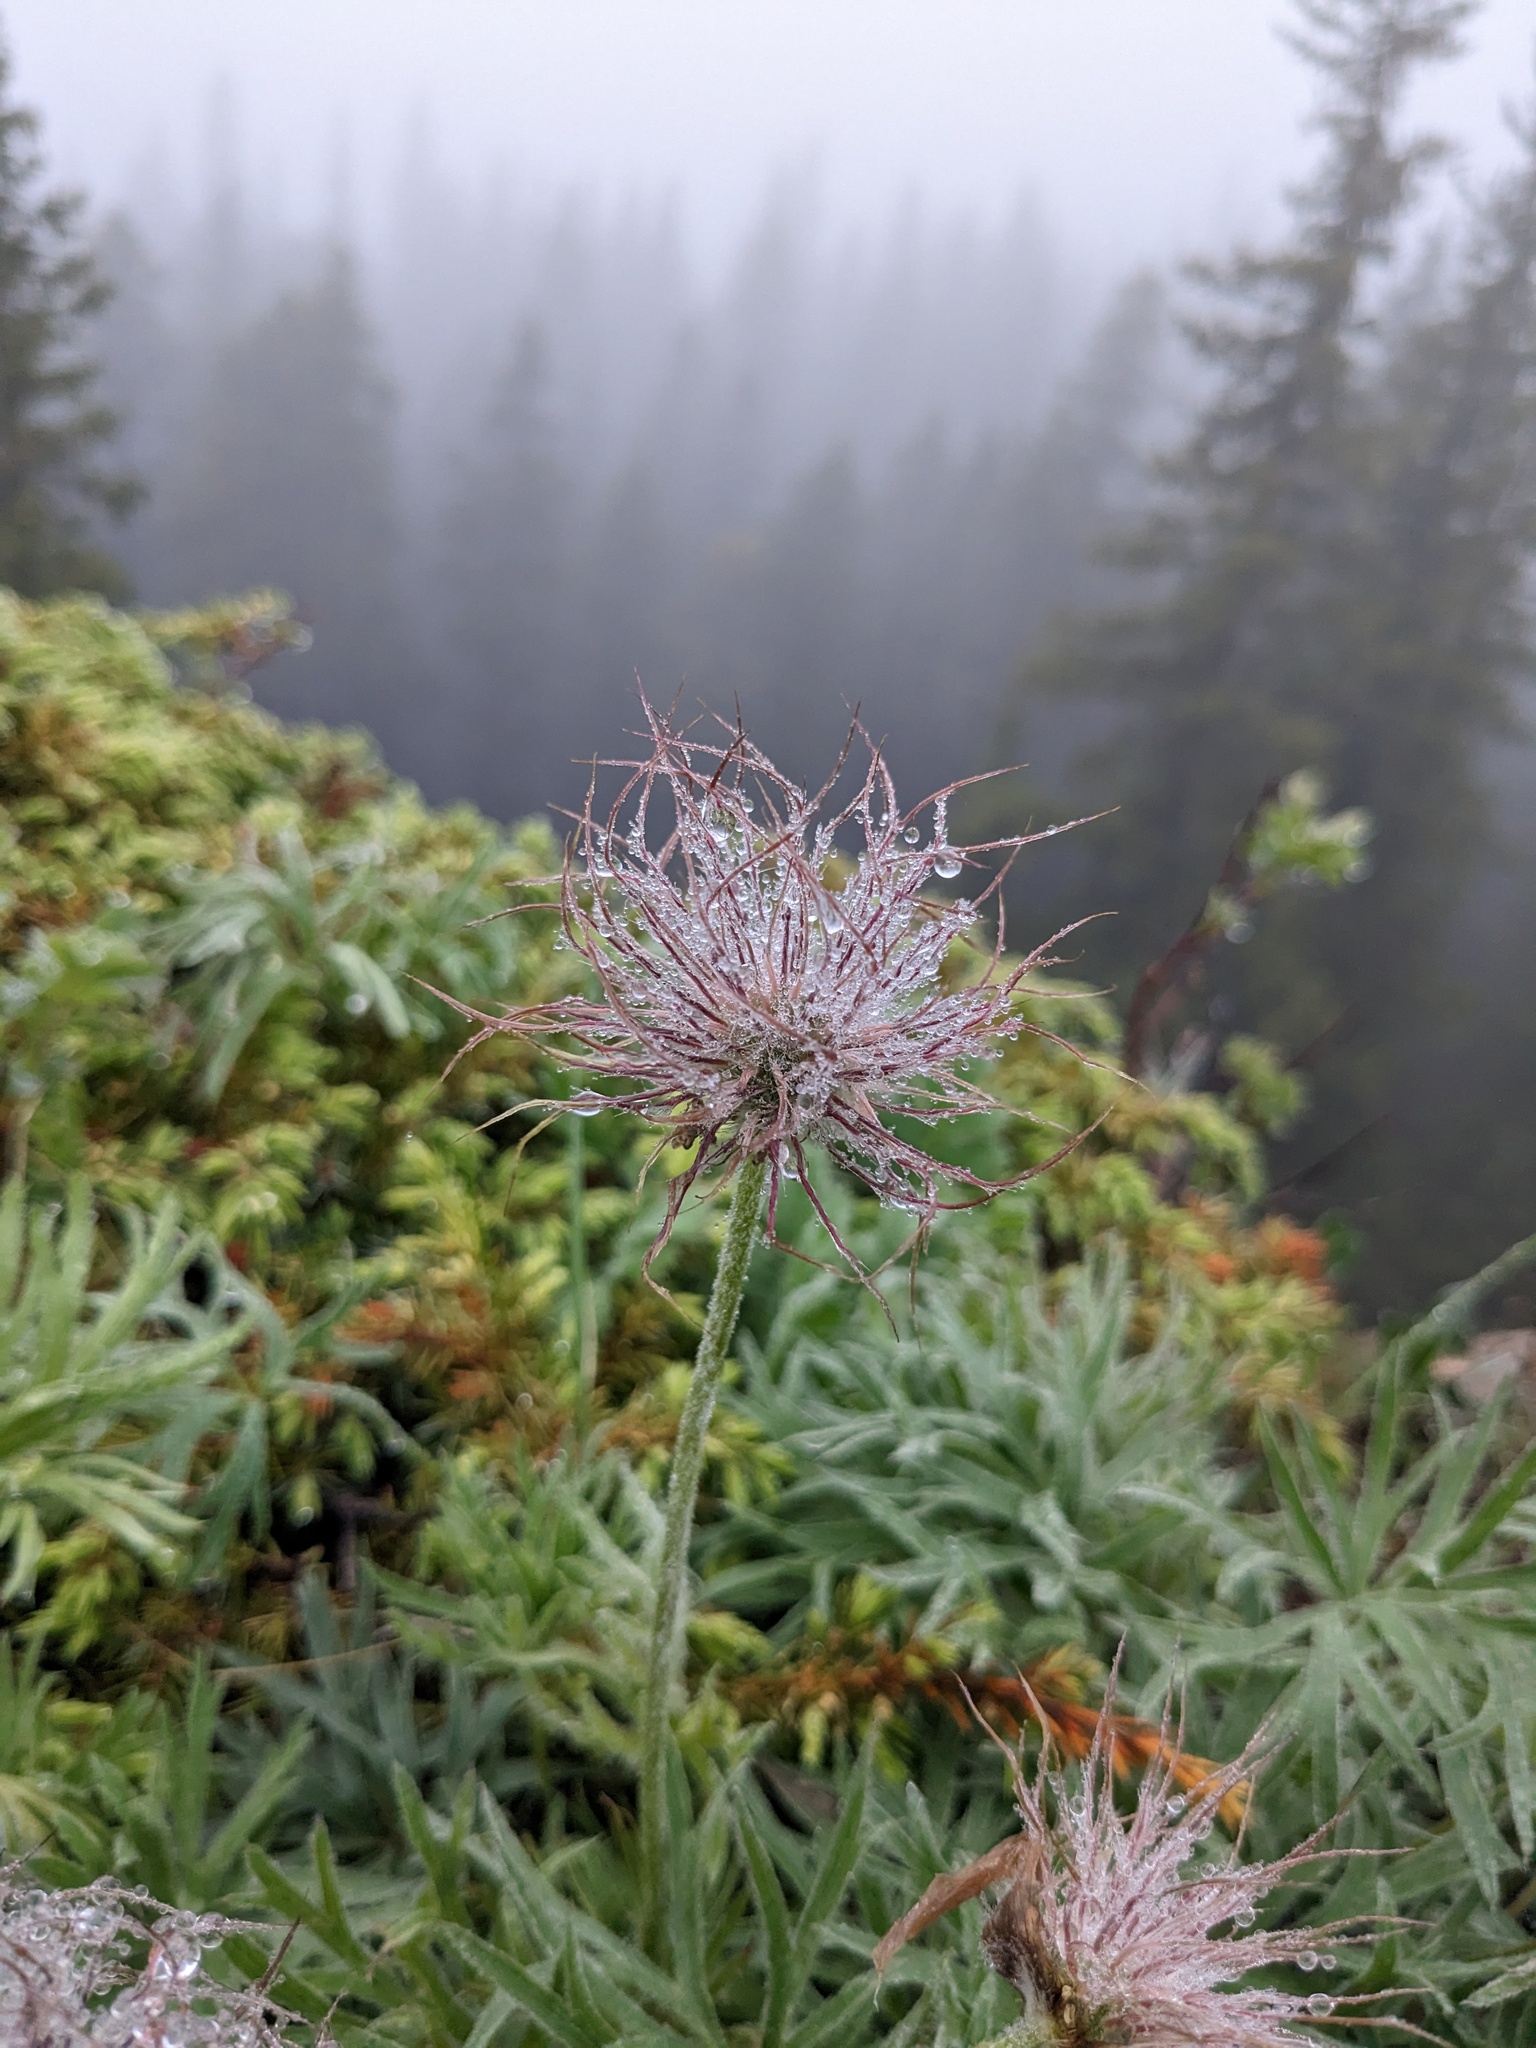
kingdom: Plantae
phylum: Tracheophyta
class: Magnoliopsida
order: Ranunculales
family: Ranunculaceae
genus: Pulsatilla
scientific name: Pulsatilla nuttalliana
